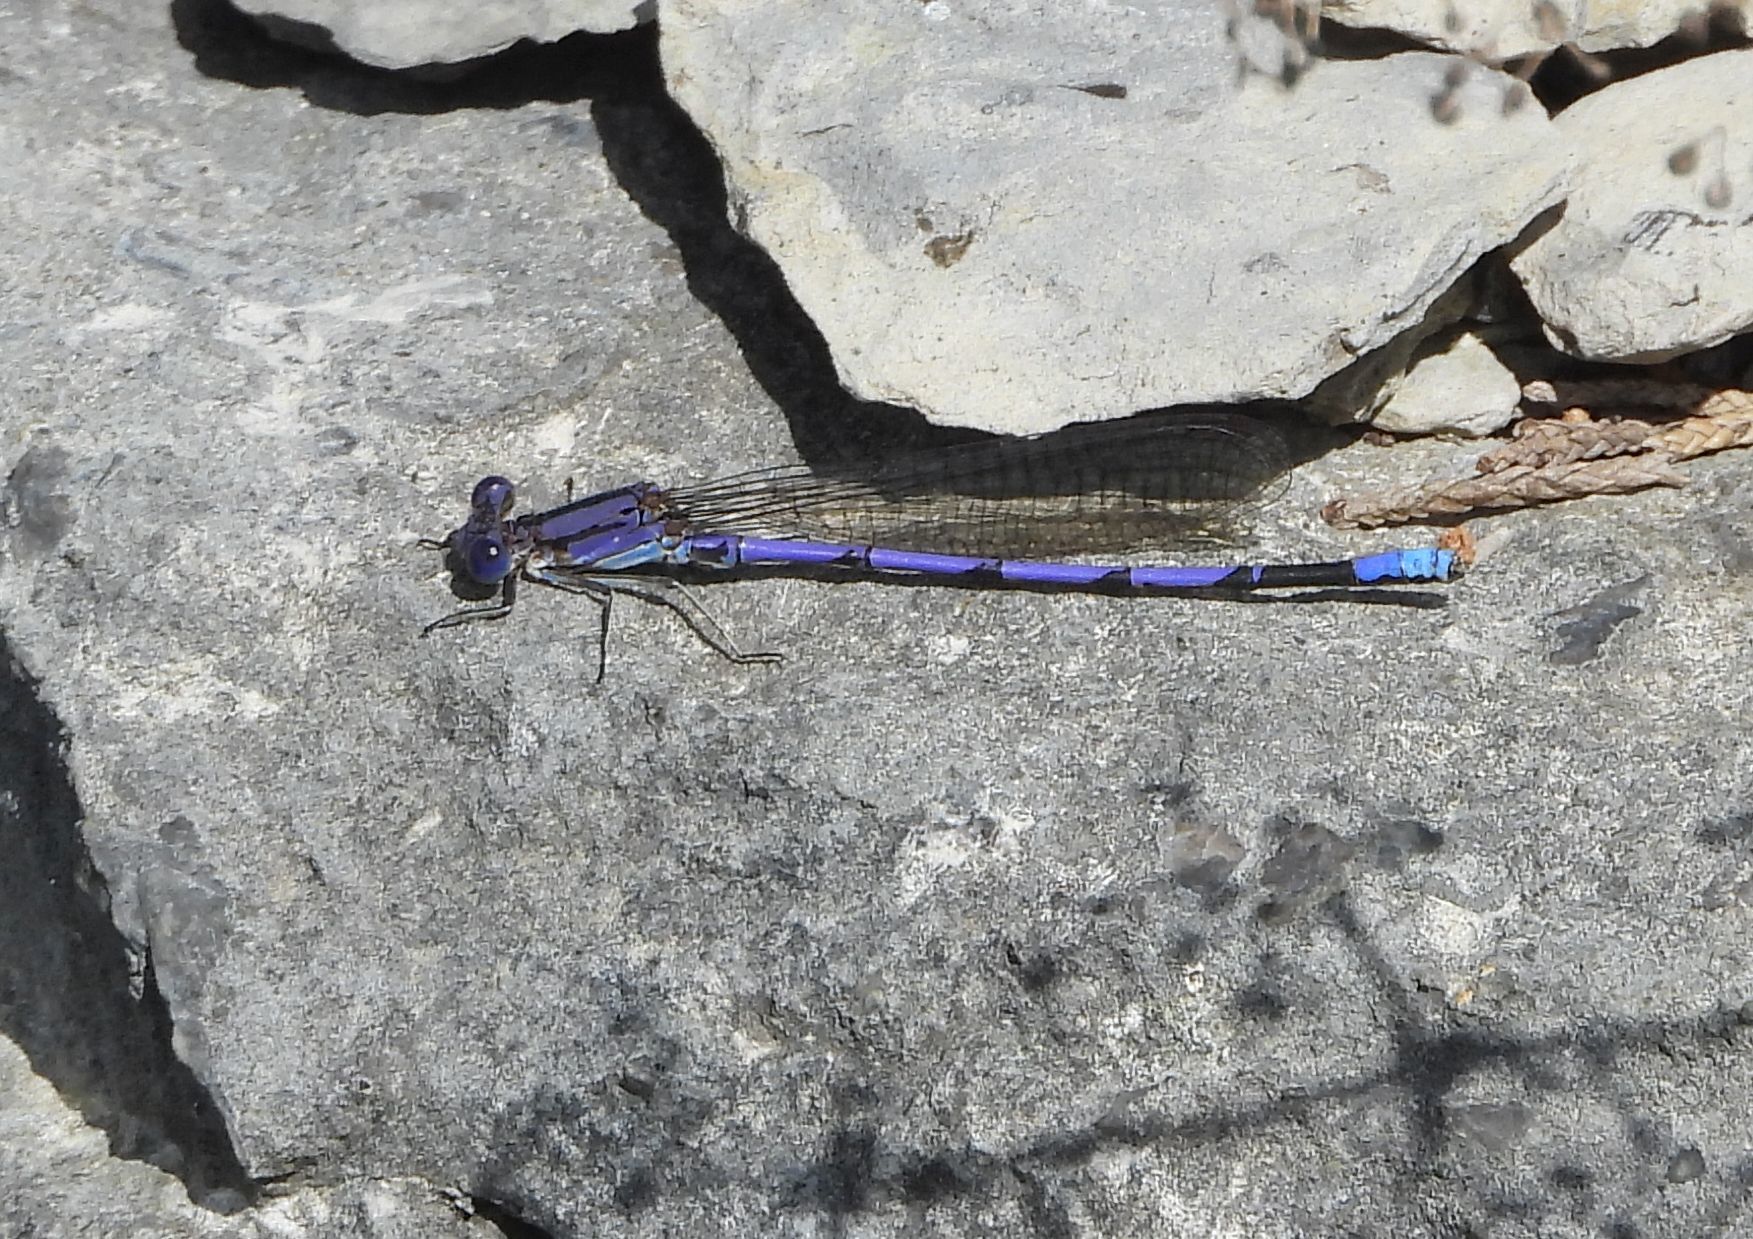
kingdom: Animalia
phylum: Arthropoda
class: Insecta
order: Odonata
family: Coenagrionidae
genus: Argia
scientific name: Argia fumipennis
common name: Variable dancer
